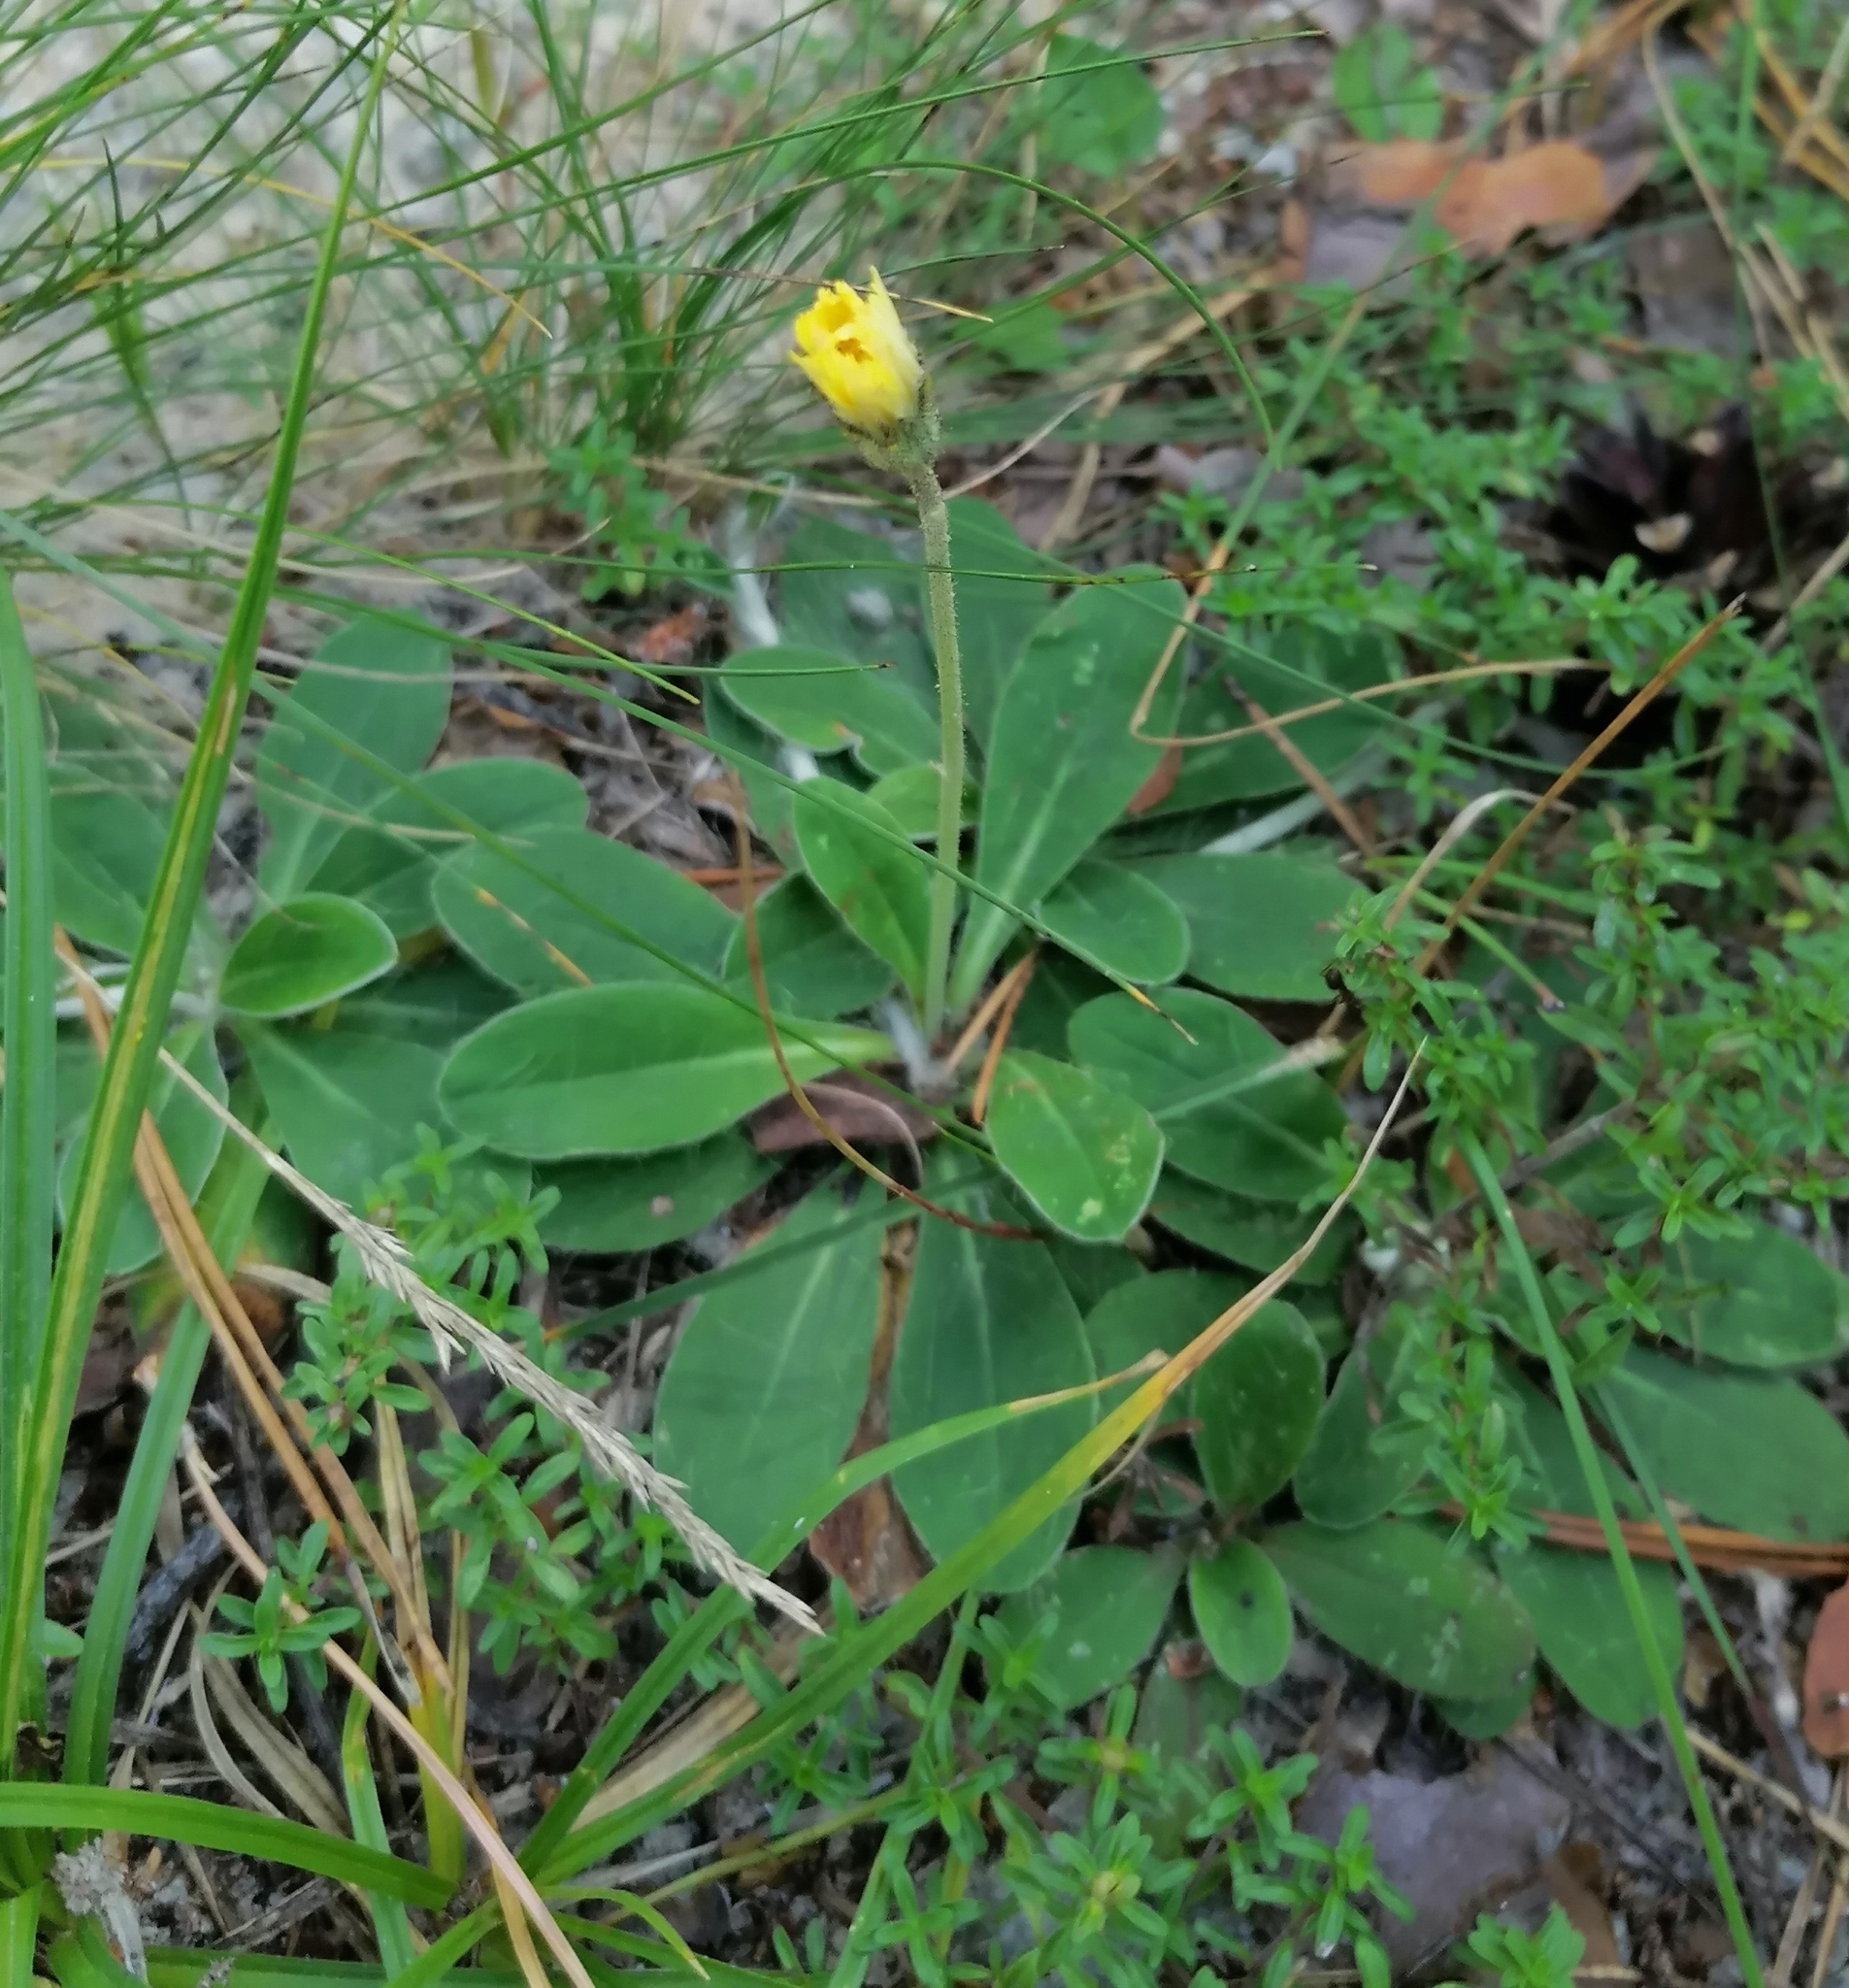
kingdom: Plantae
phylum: Tracheophyta
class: Magnoliopsida
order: Asterales
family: Asteraceae
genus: Pilosella
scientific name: Pilosella officinarum
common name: Mouse-ear hawkweed
